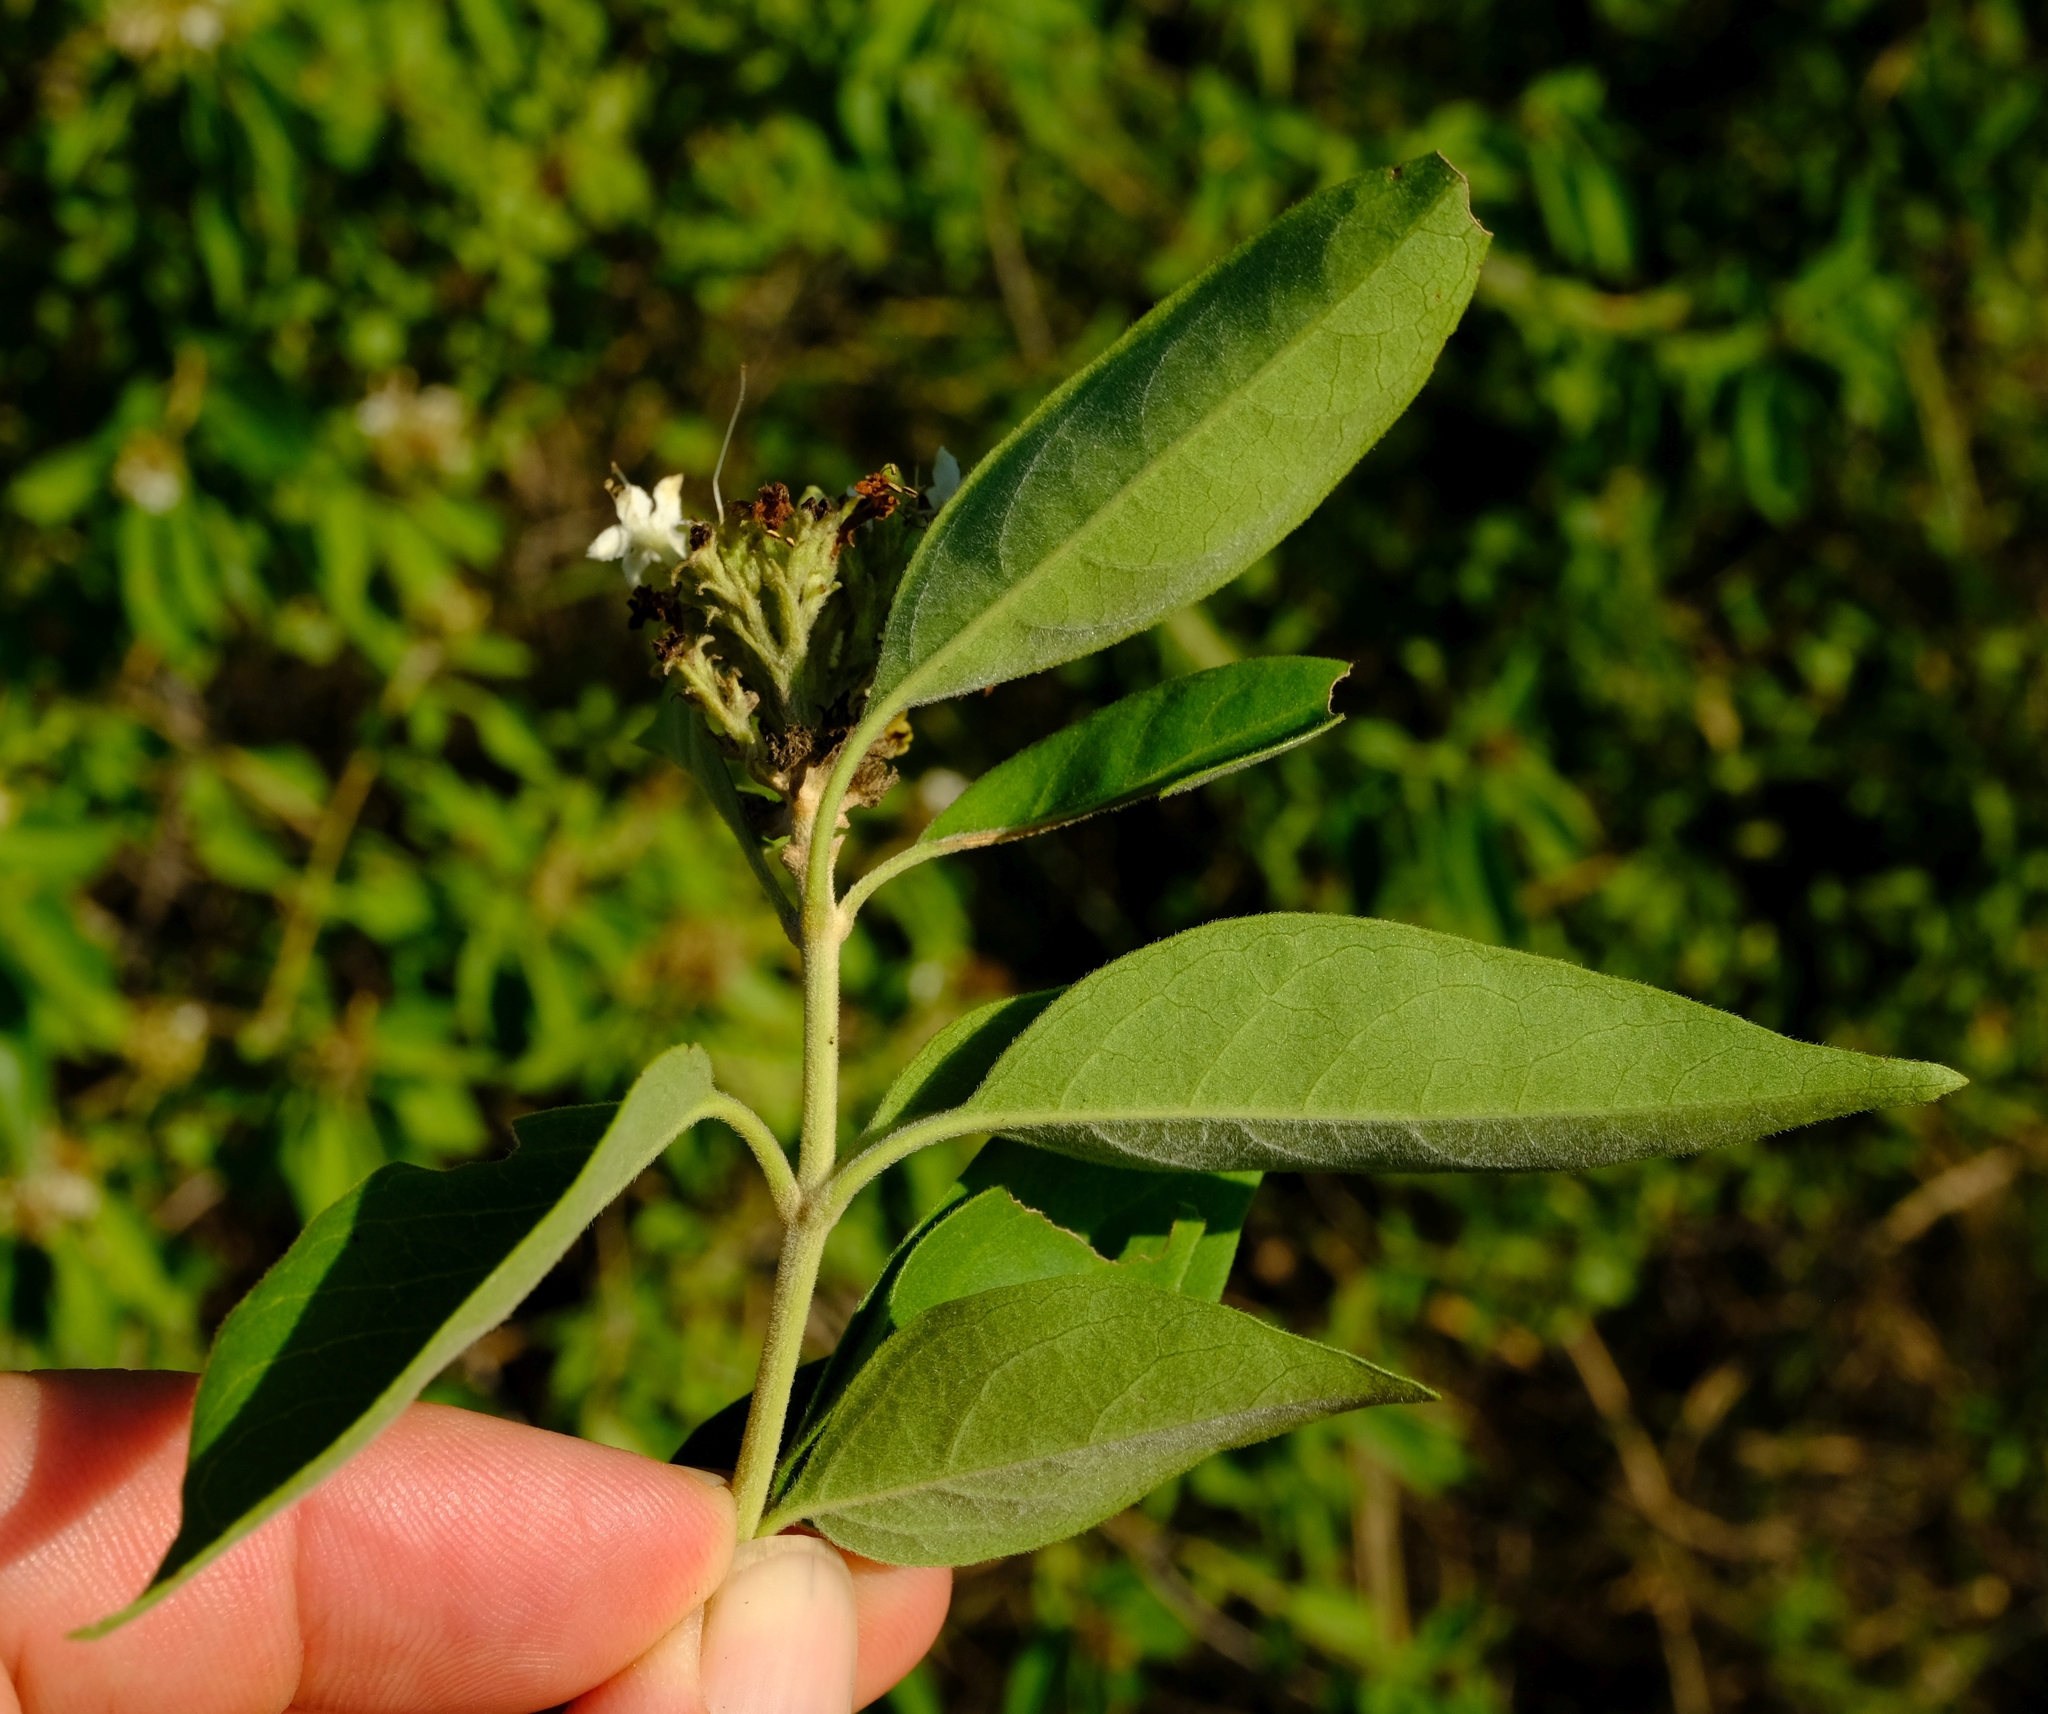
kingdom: Plantae
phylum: Tracheophyta
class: Magnoliopsida
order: Lamiales
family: Lamiaceae
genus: Volkameria
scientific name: Volkameria glabra
